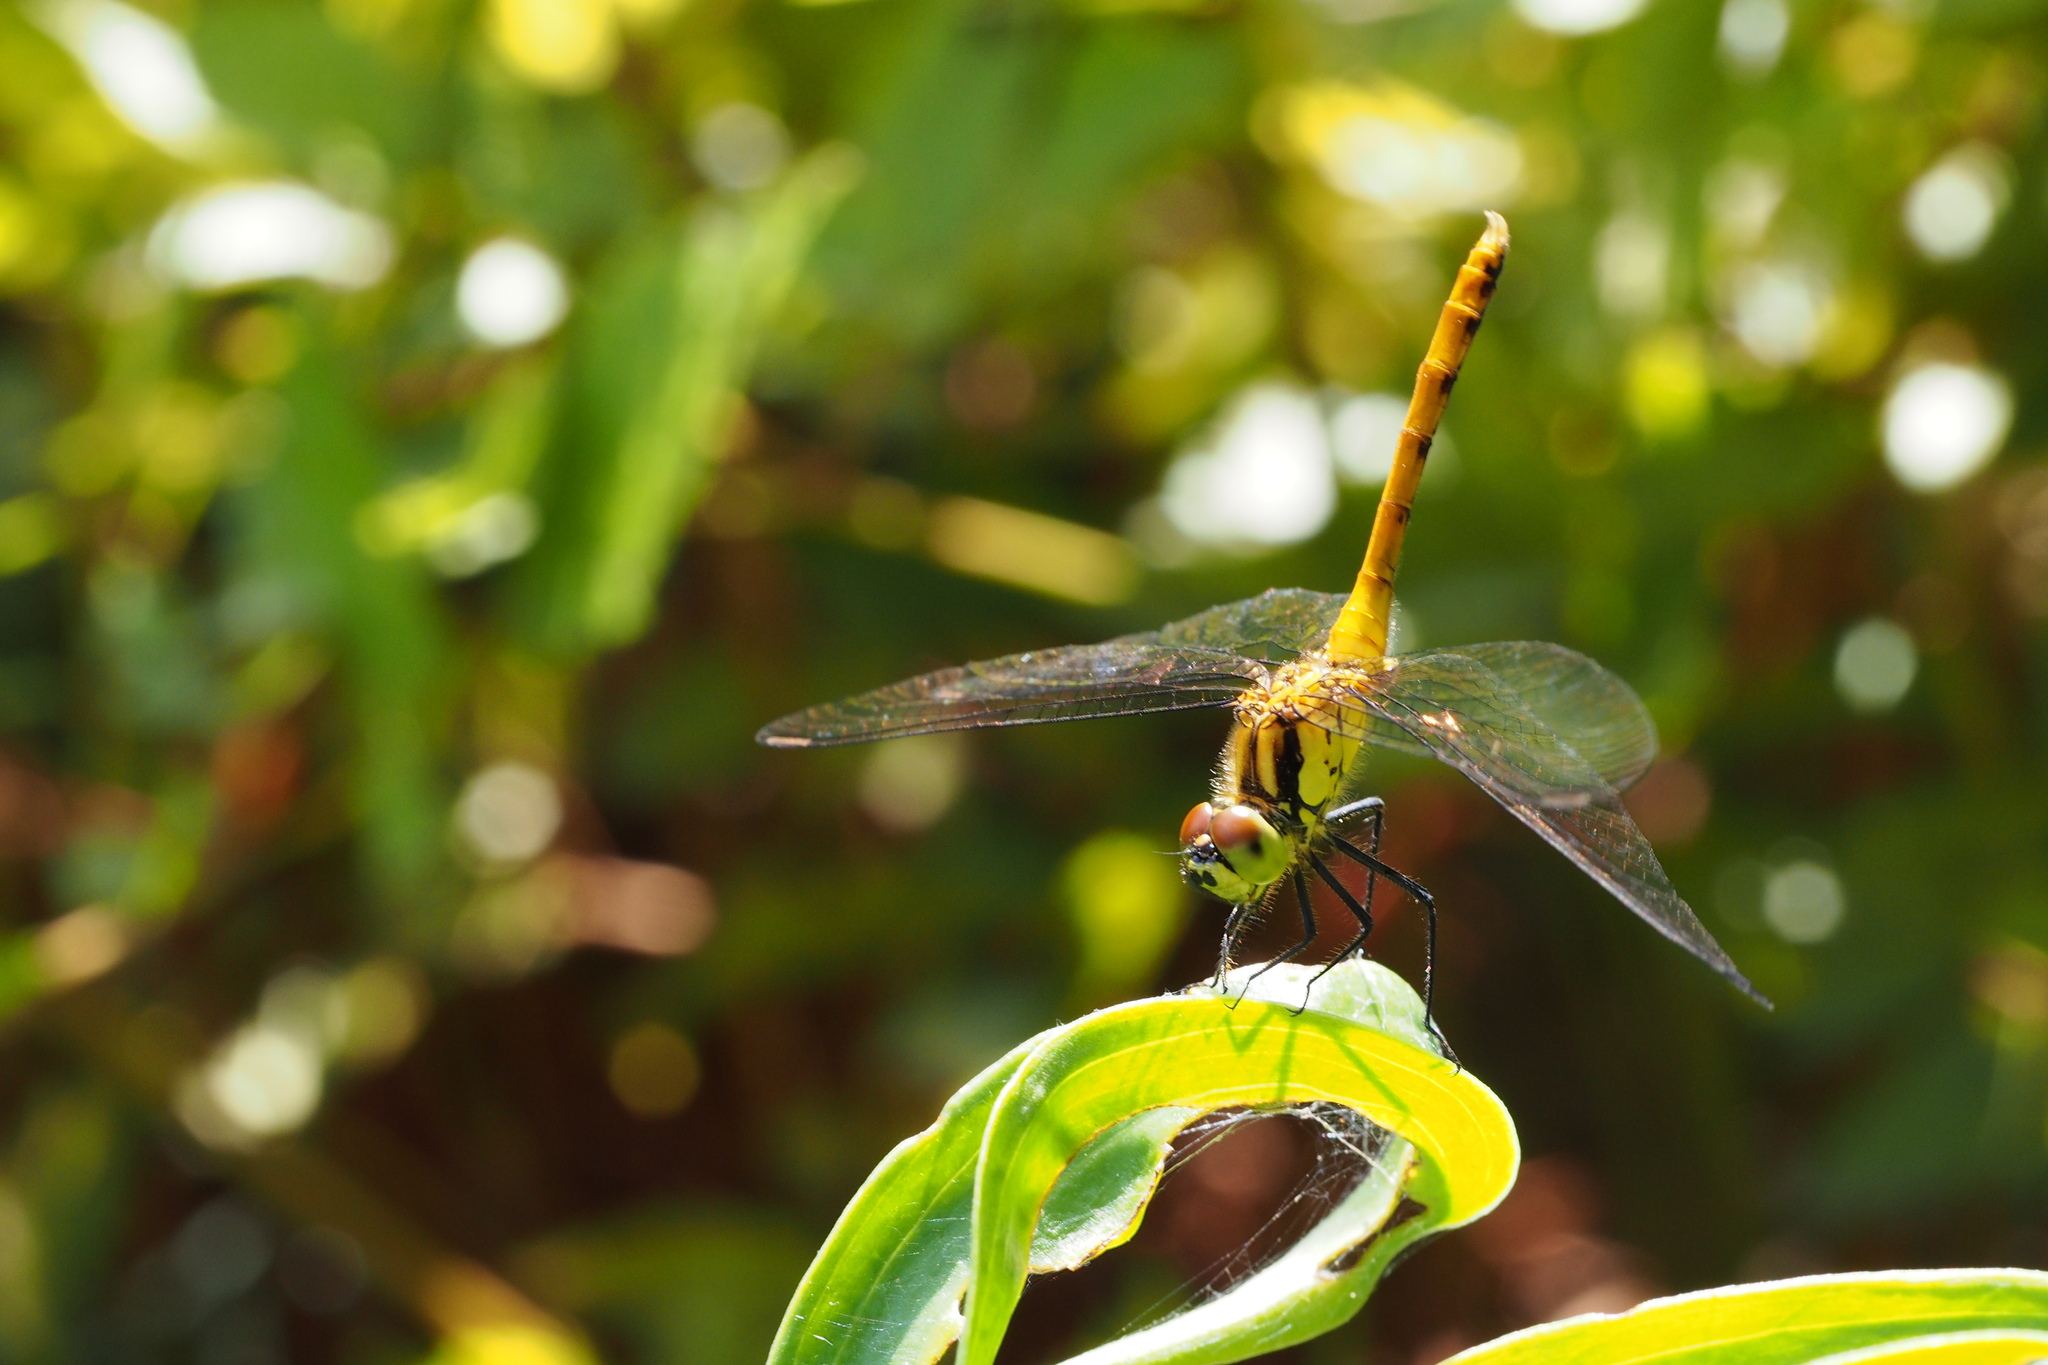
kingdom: Animalia
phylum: Arthropoda
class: Insecta
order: Odonata
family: Libellulidae
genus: Sympetrum
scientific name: Sympetrum eroticum
